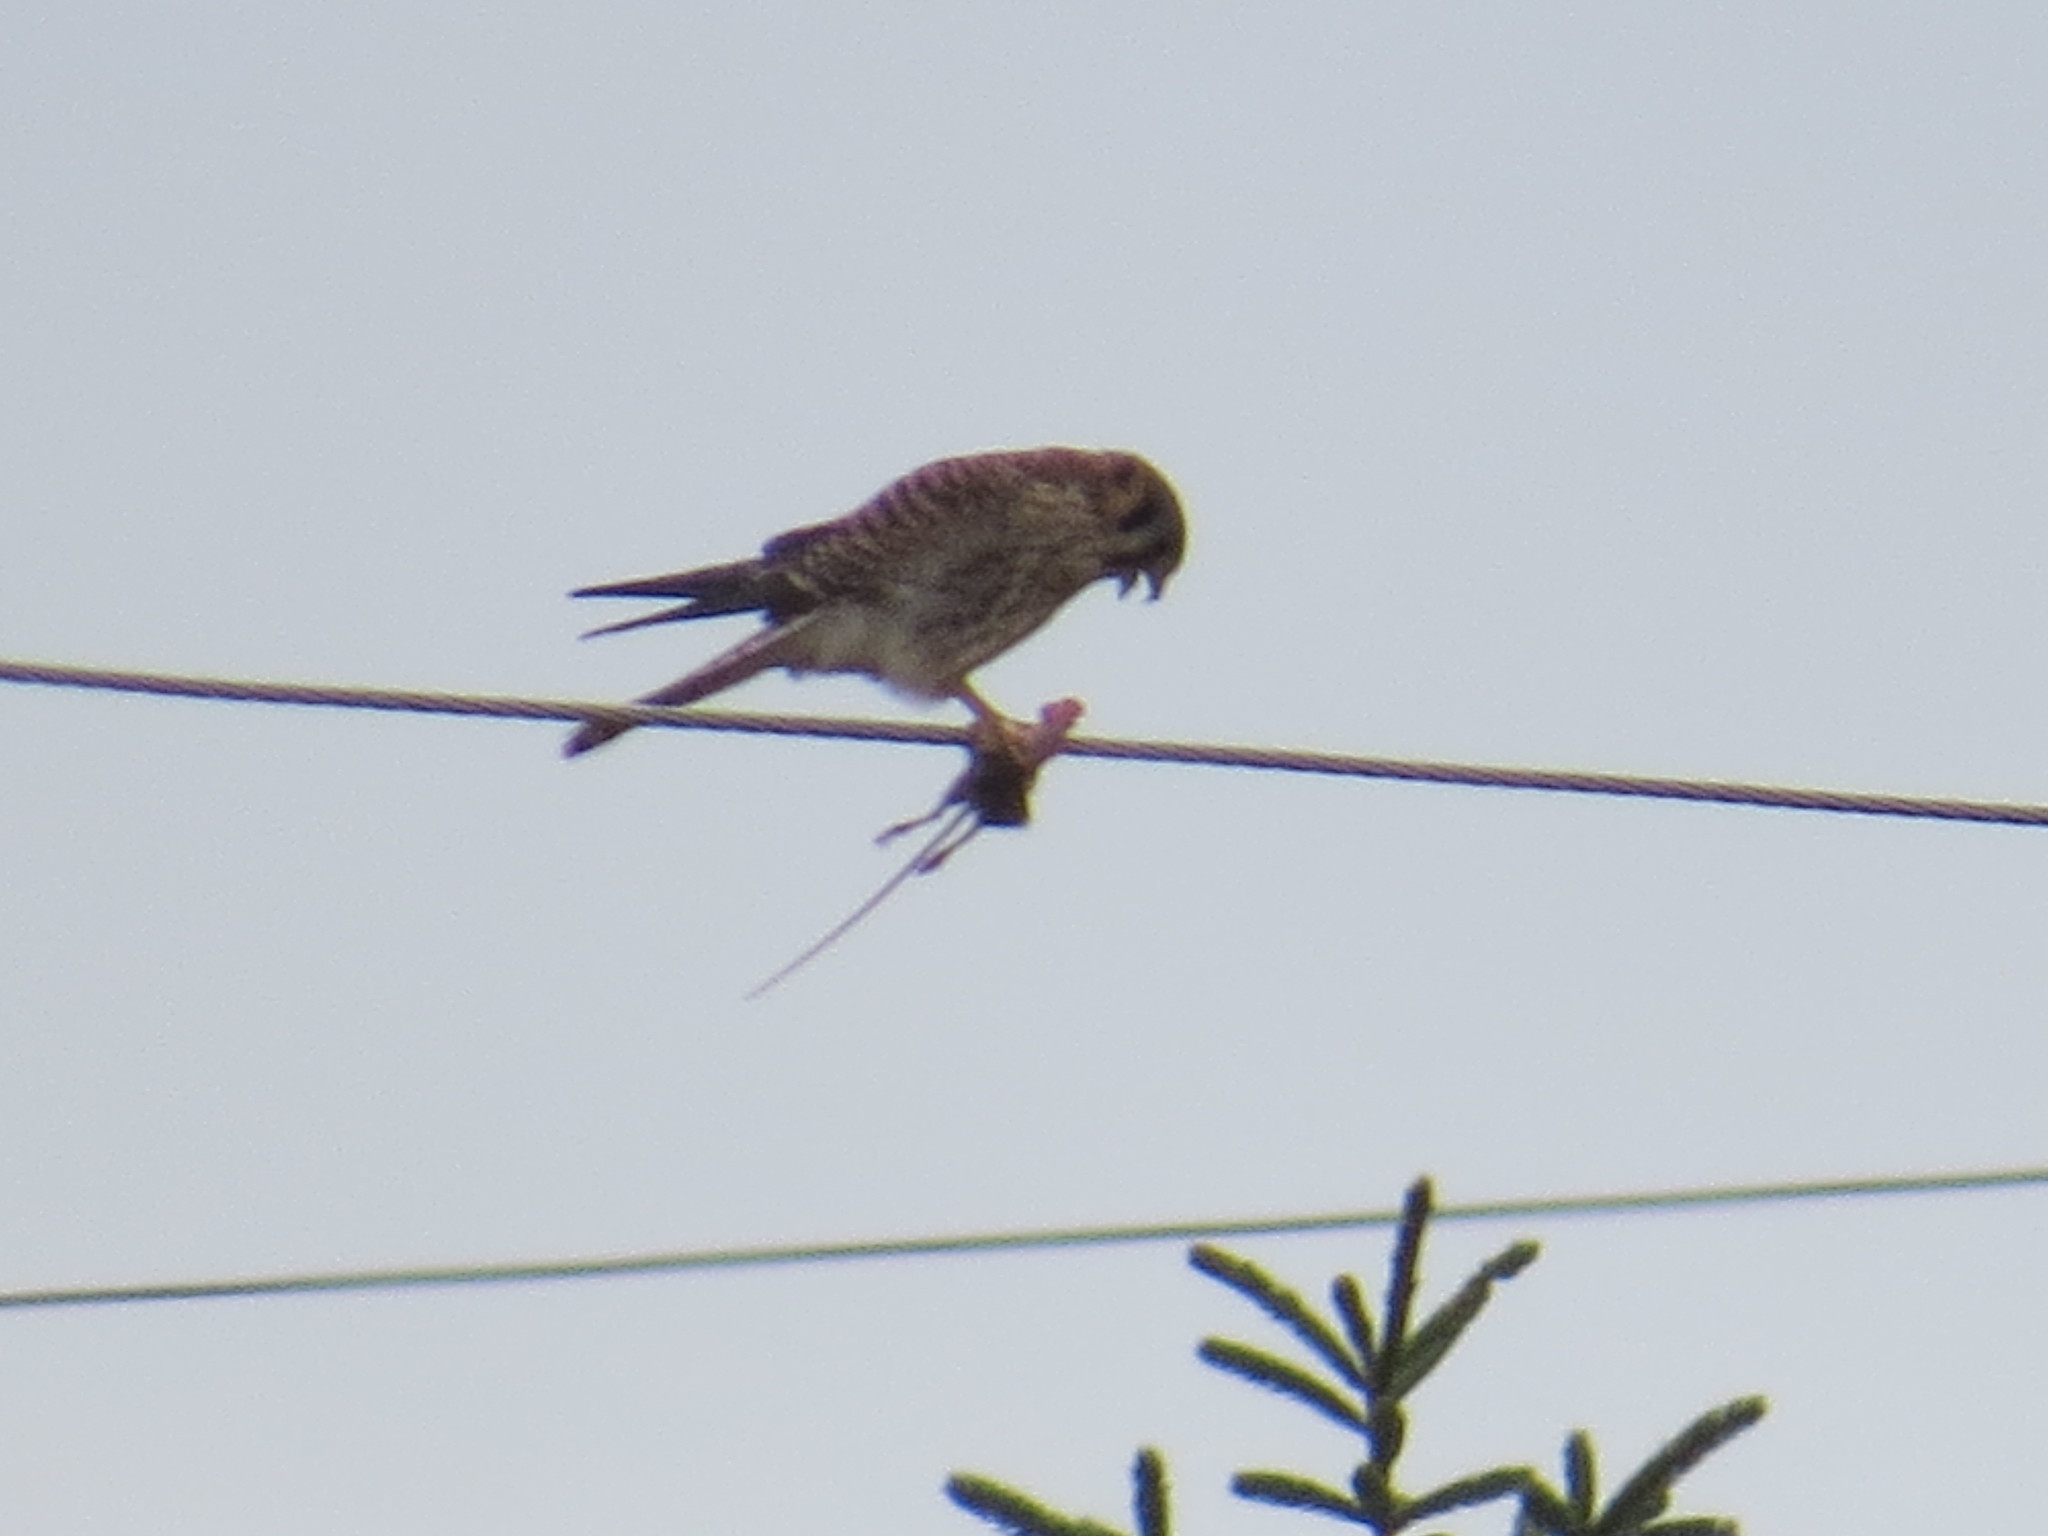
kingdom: Animalia
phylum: Chordata
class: Aves
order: Falconiformes
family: Falconidae
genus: Falco
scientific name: Falco sparverius
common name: American kestrel
